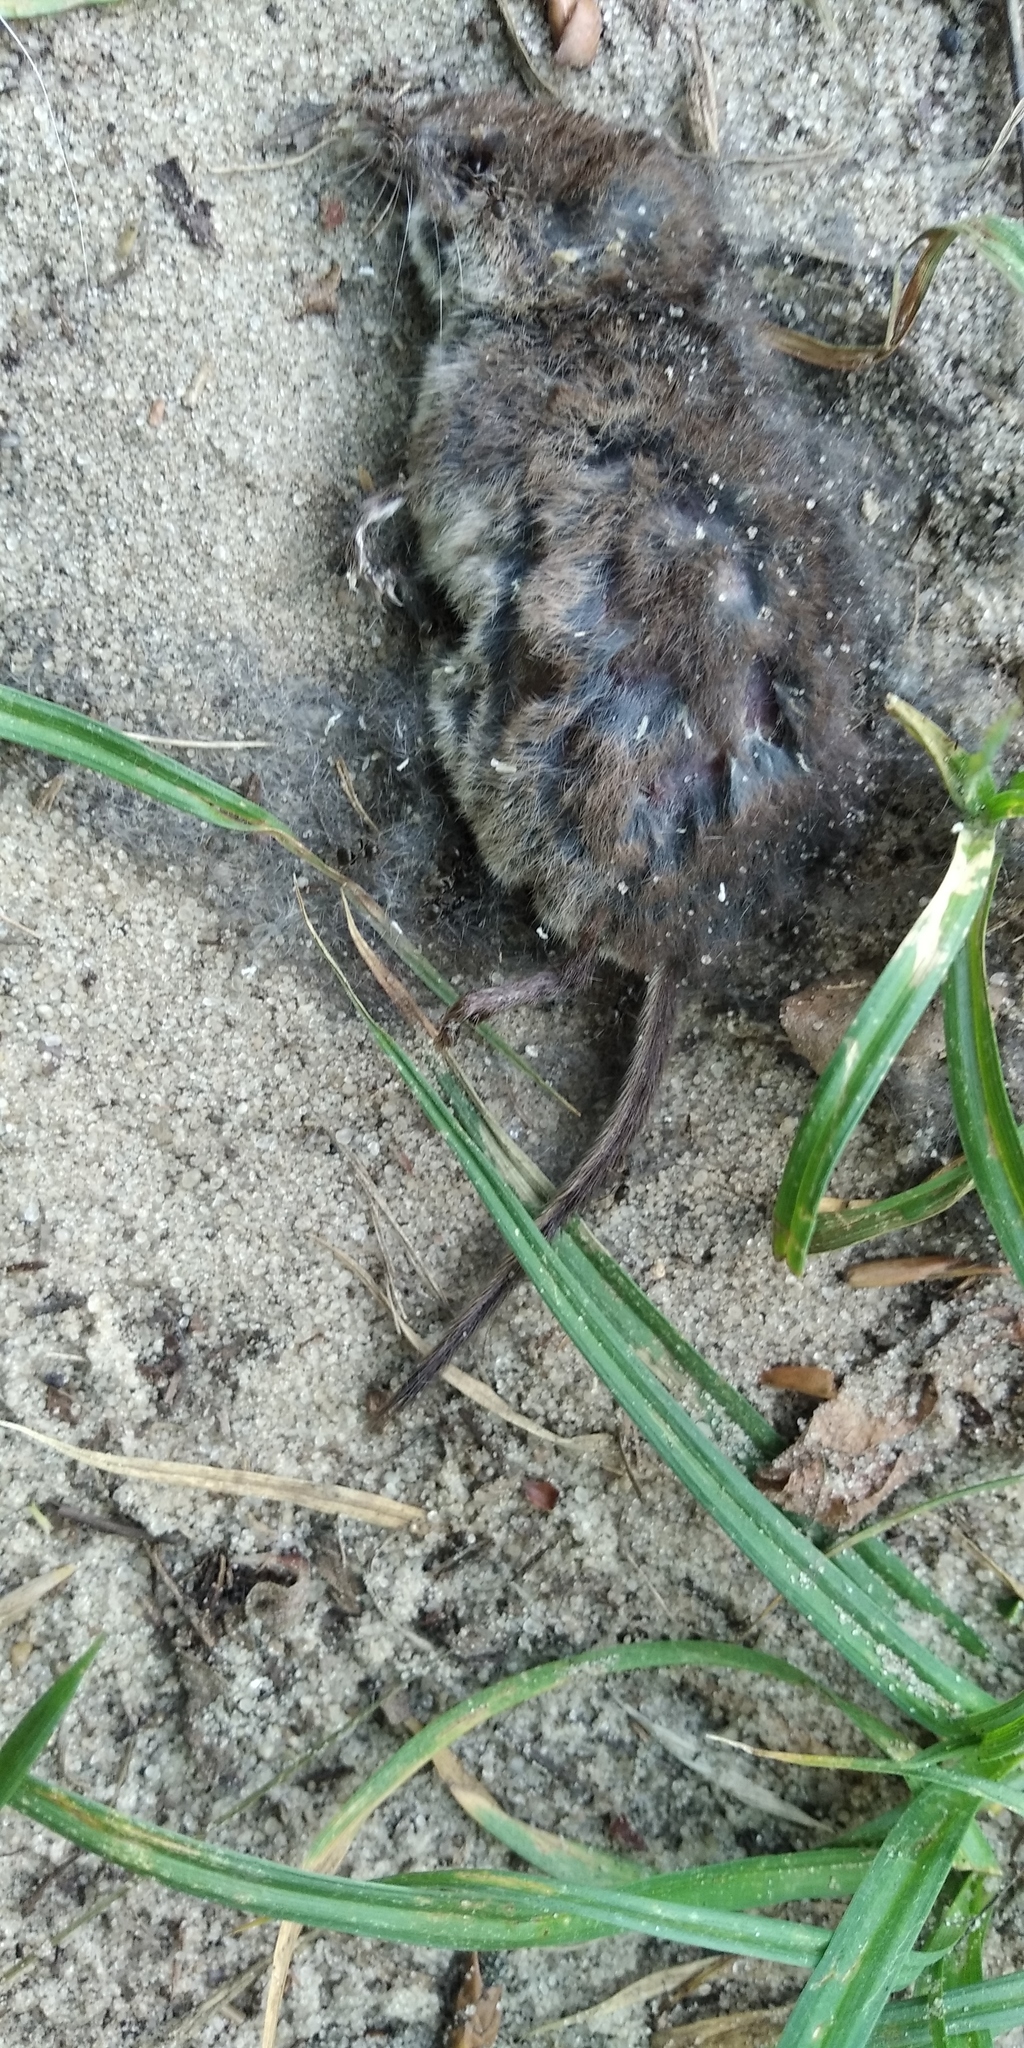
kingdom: Animalia
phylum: Chordata
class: Mammalia
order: Soricomorpha
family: Soricidae
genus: Sorex
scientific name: Sorex araneus
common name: Common shrew
